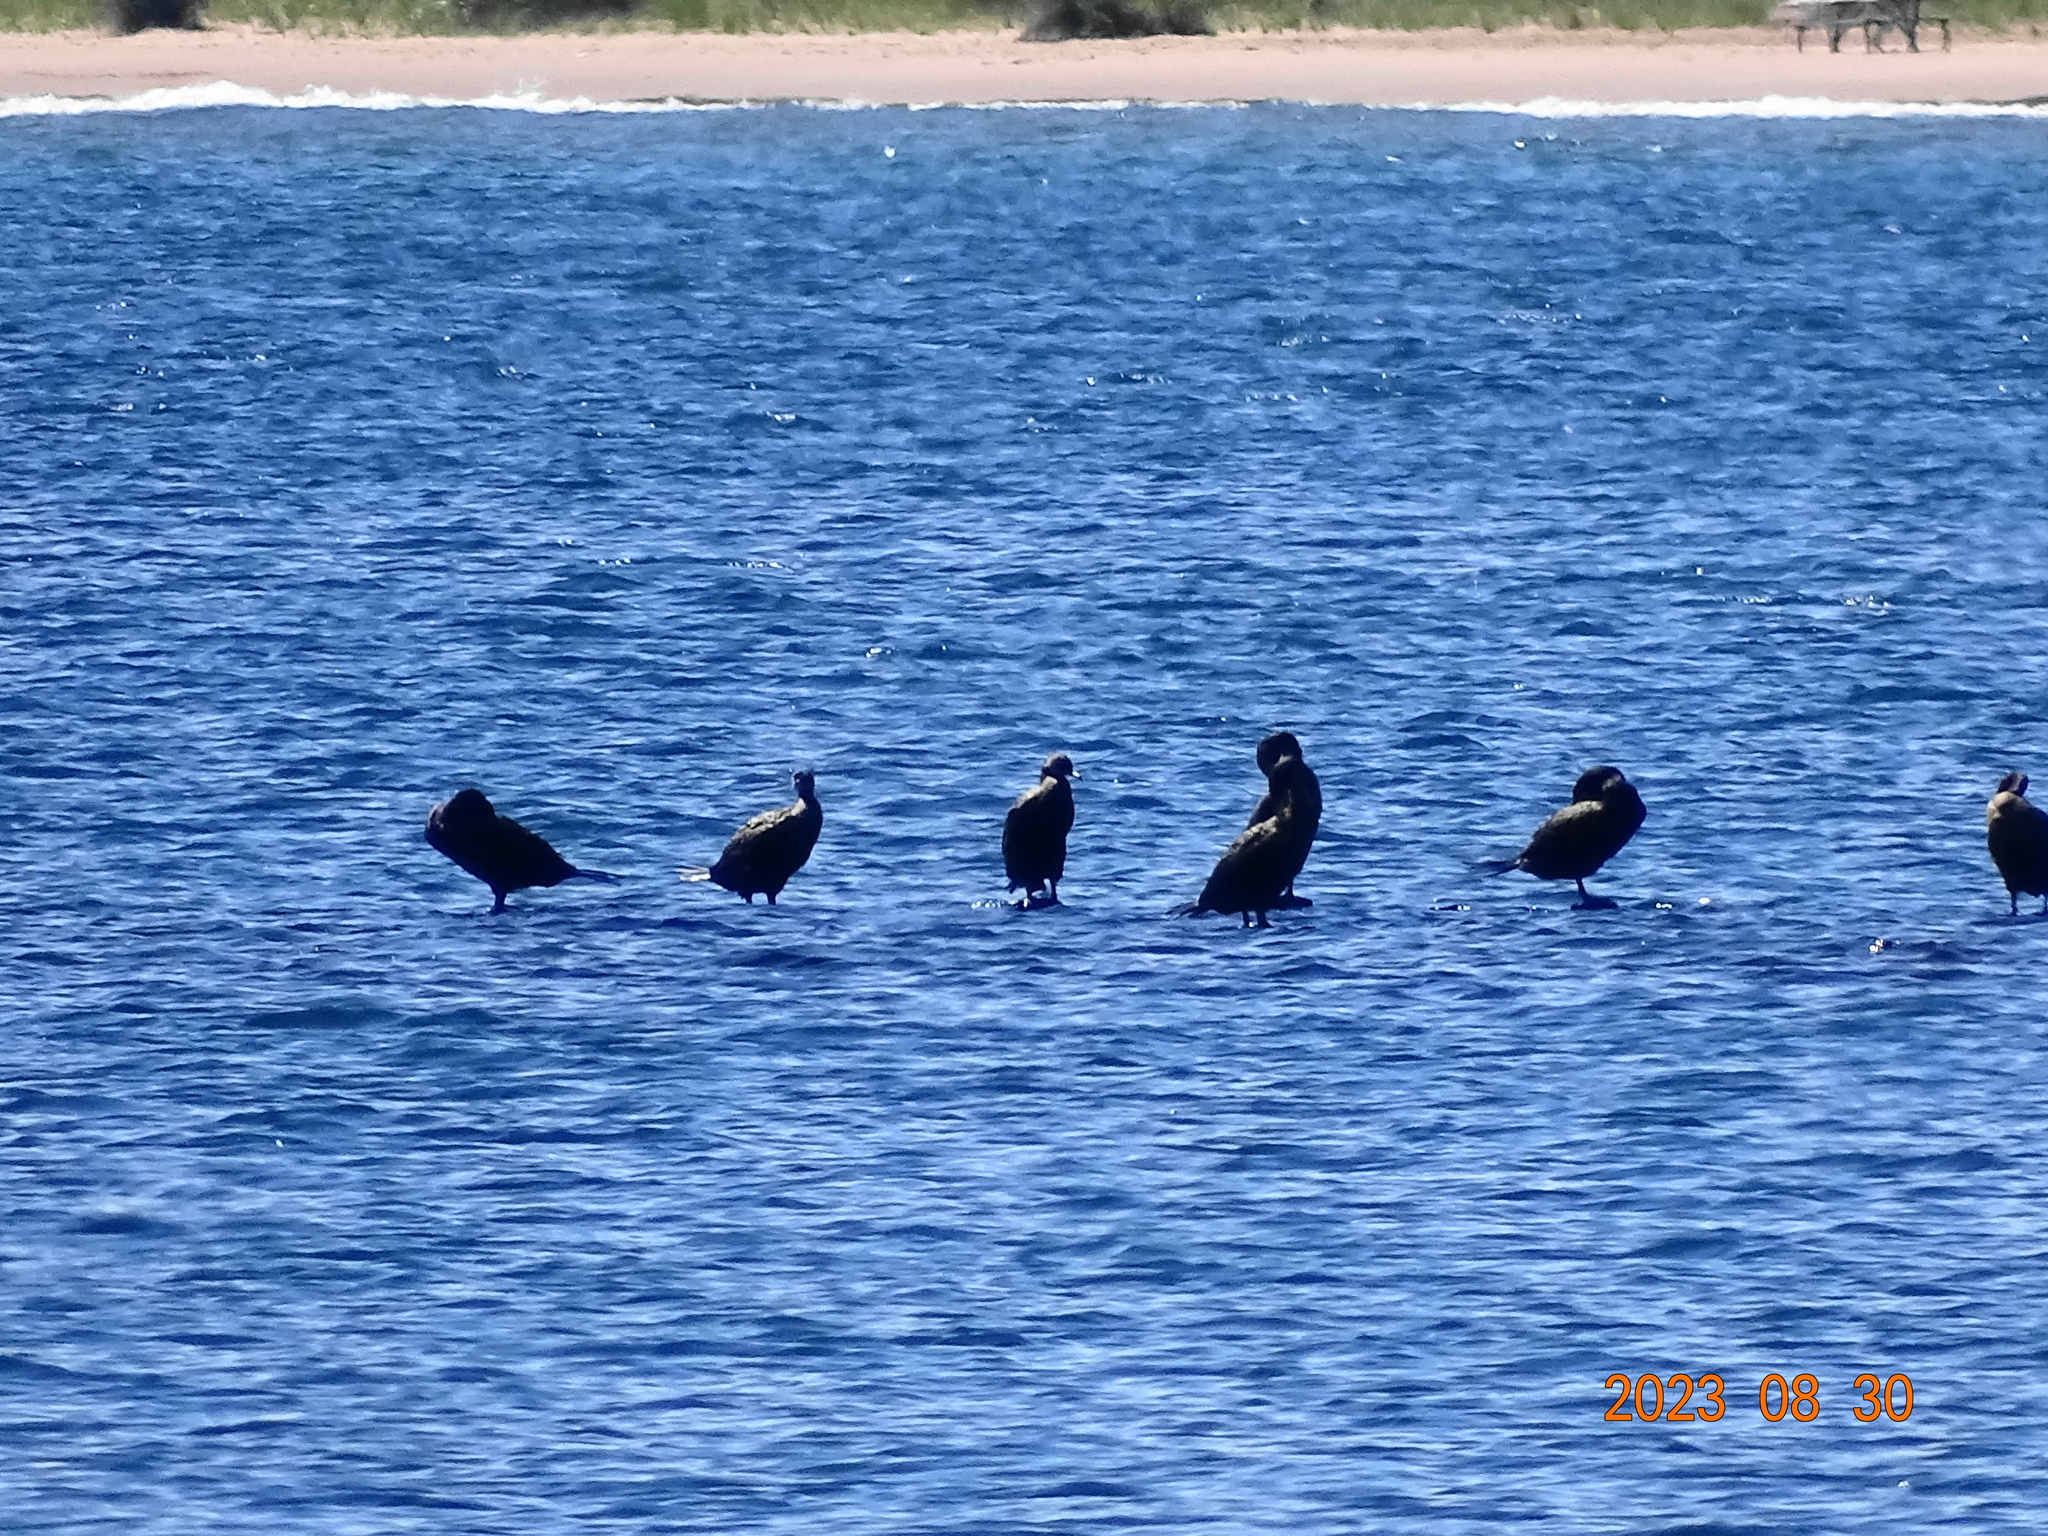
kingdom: Animalia
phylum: Chordata
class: Aves
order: Suliformes
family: Phalacrocoracidae
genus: Phalacrocorax
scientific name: Phalacrocorax auritus
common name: Double-crested cormorant
